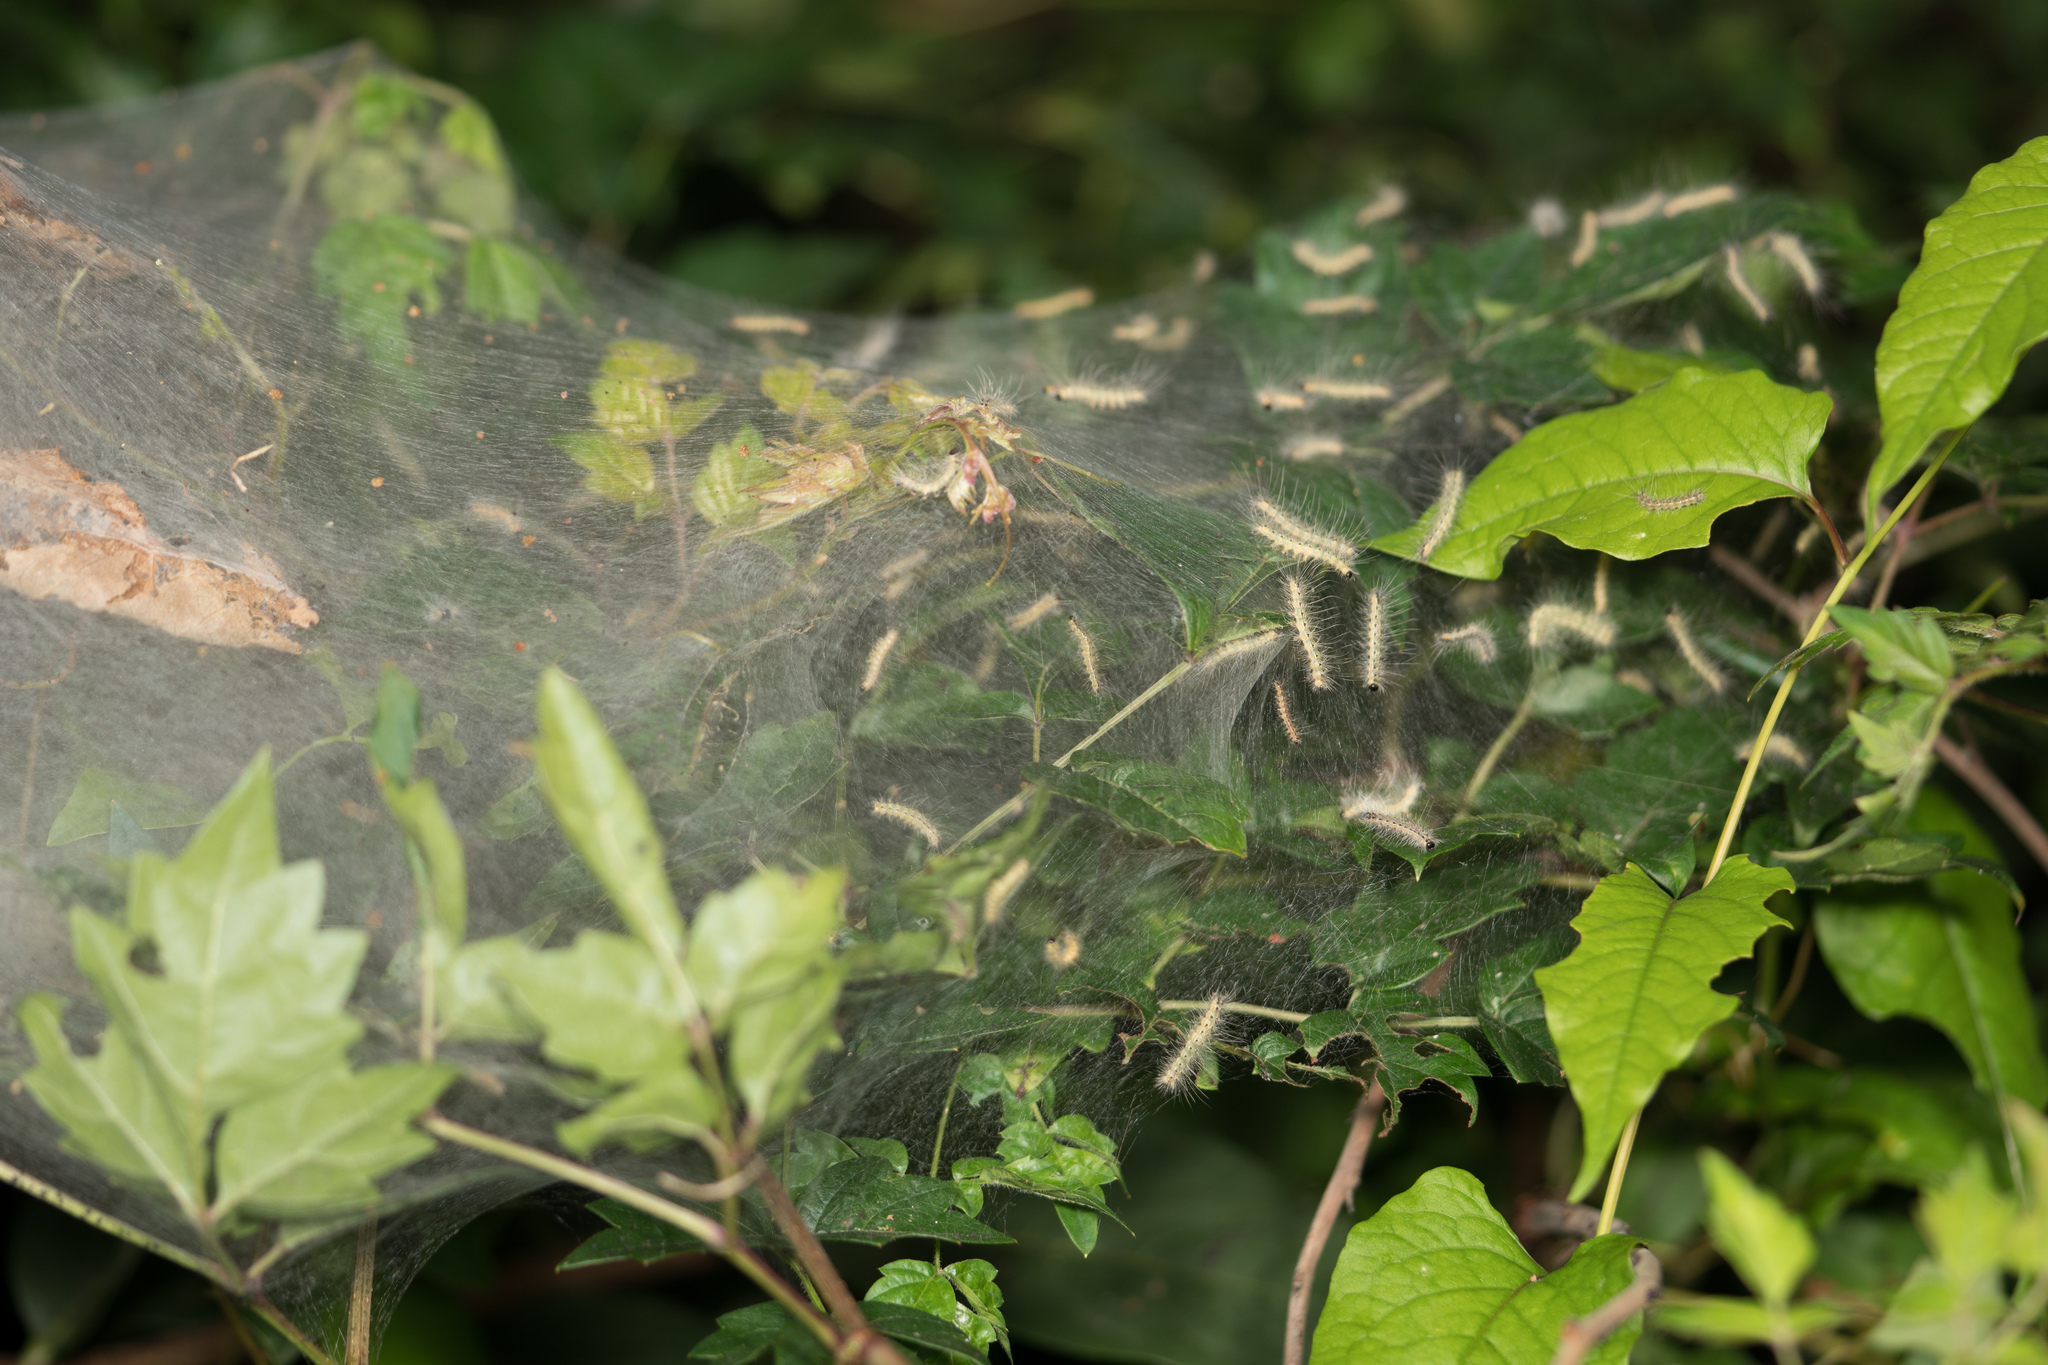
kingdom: Animalia
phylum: Arthropoda
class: Insecta
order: Lepidoptera
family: Erebidae
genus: Hyphantria
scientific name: Hyphantria cunea
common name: American white moth
